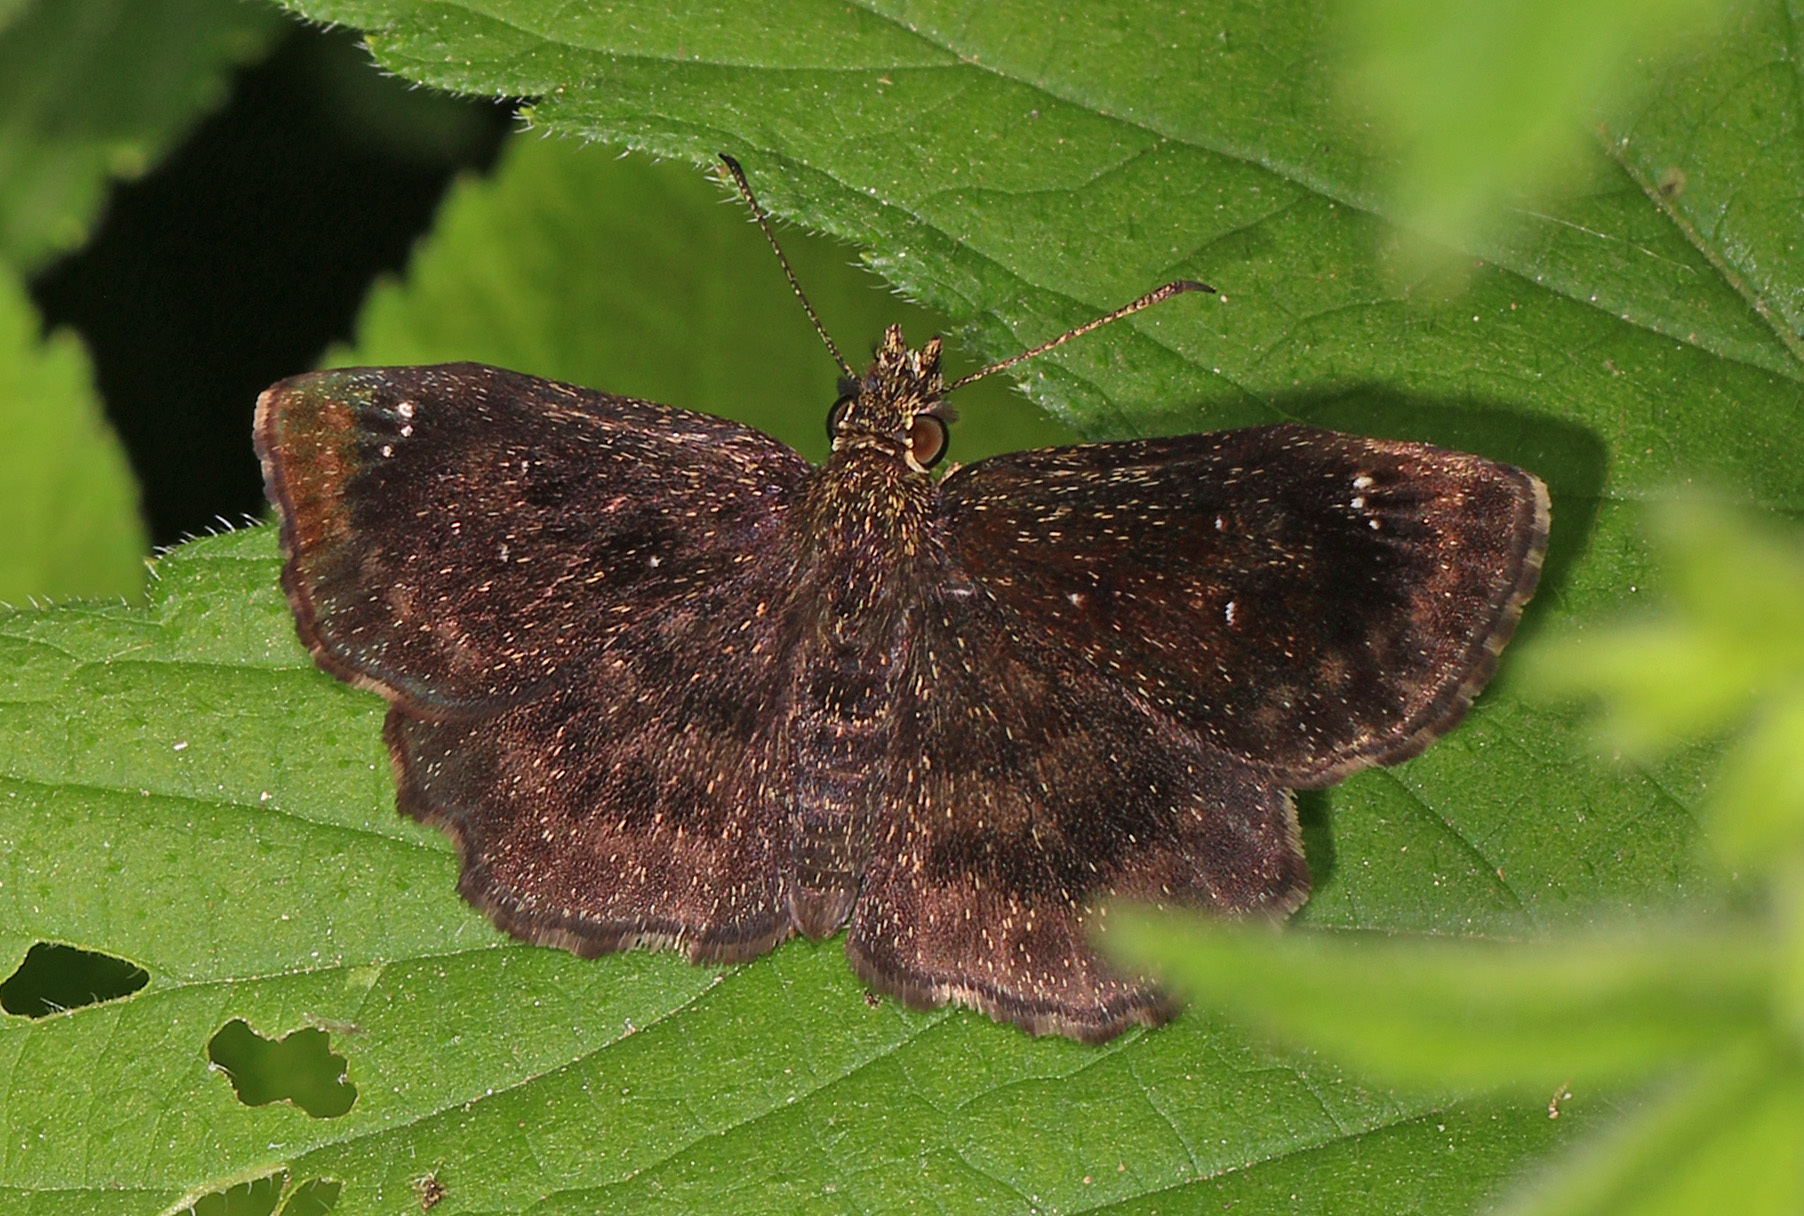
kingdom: Animalia
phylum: Arthropoda
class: Insecta
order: Lepidoptera
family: Hesperiidae
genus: Staphylus
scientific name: Staphylus mazans
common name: Mazans scallopwing
